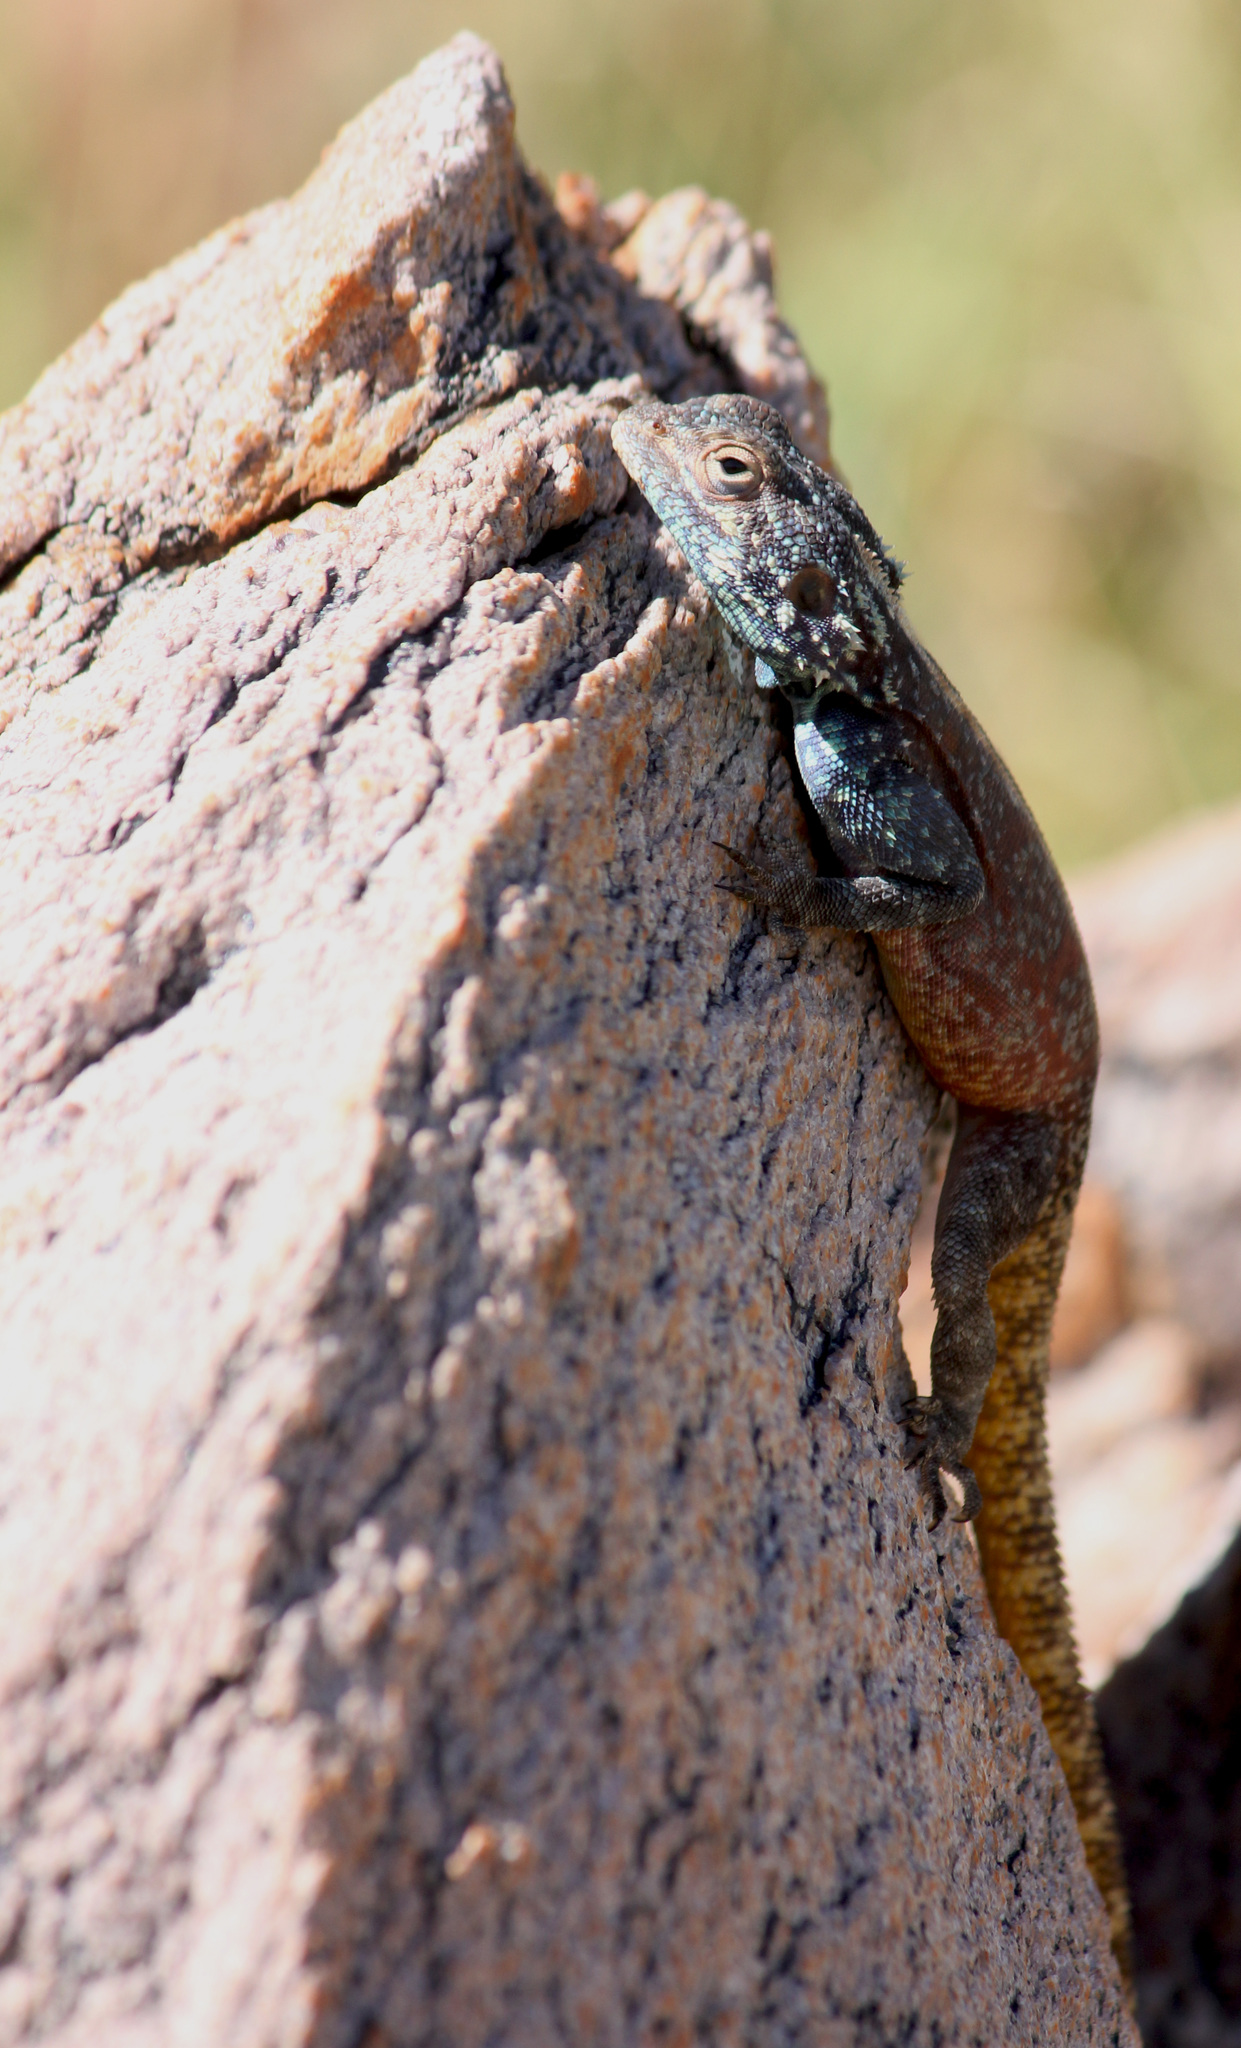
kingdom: Animalia
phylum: Chordata
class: Squamata
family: Agamidae
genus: Agama
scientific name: Agama atra
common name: Southern african rock agama
